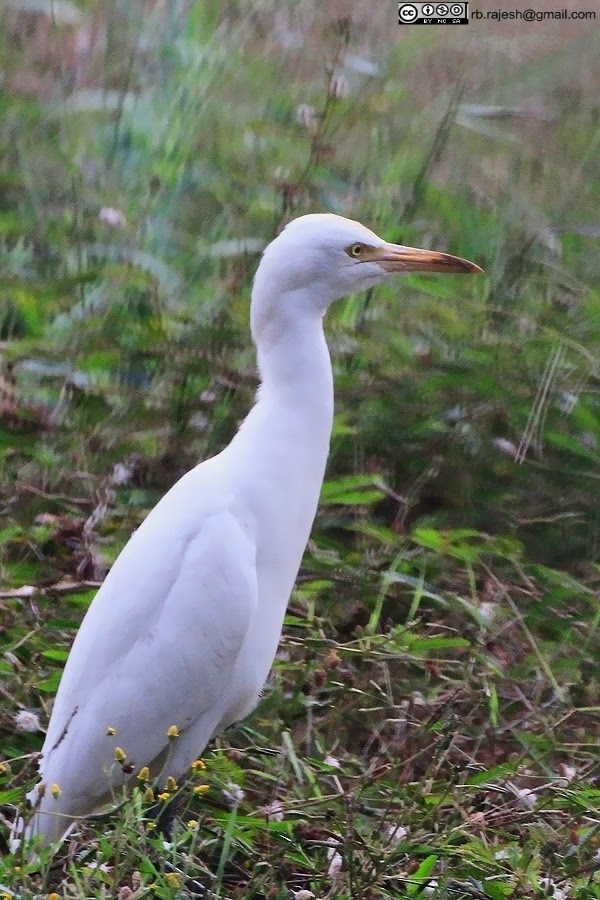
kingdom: Animalia
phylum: Chordata
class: Aves
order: Pelecaniformes
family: Ardeidae
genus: Bubulcus
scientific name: Bubulcus coromandus
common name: Eastern cattle egret
